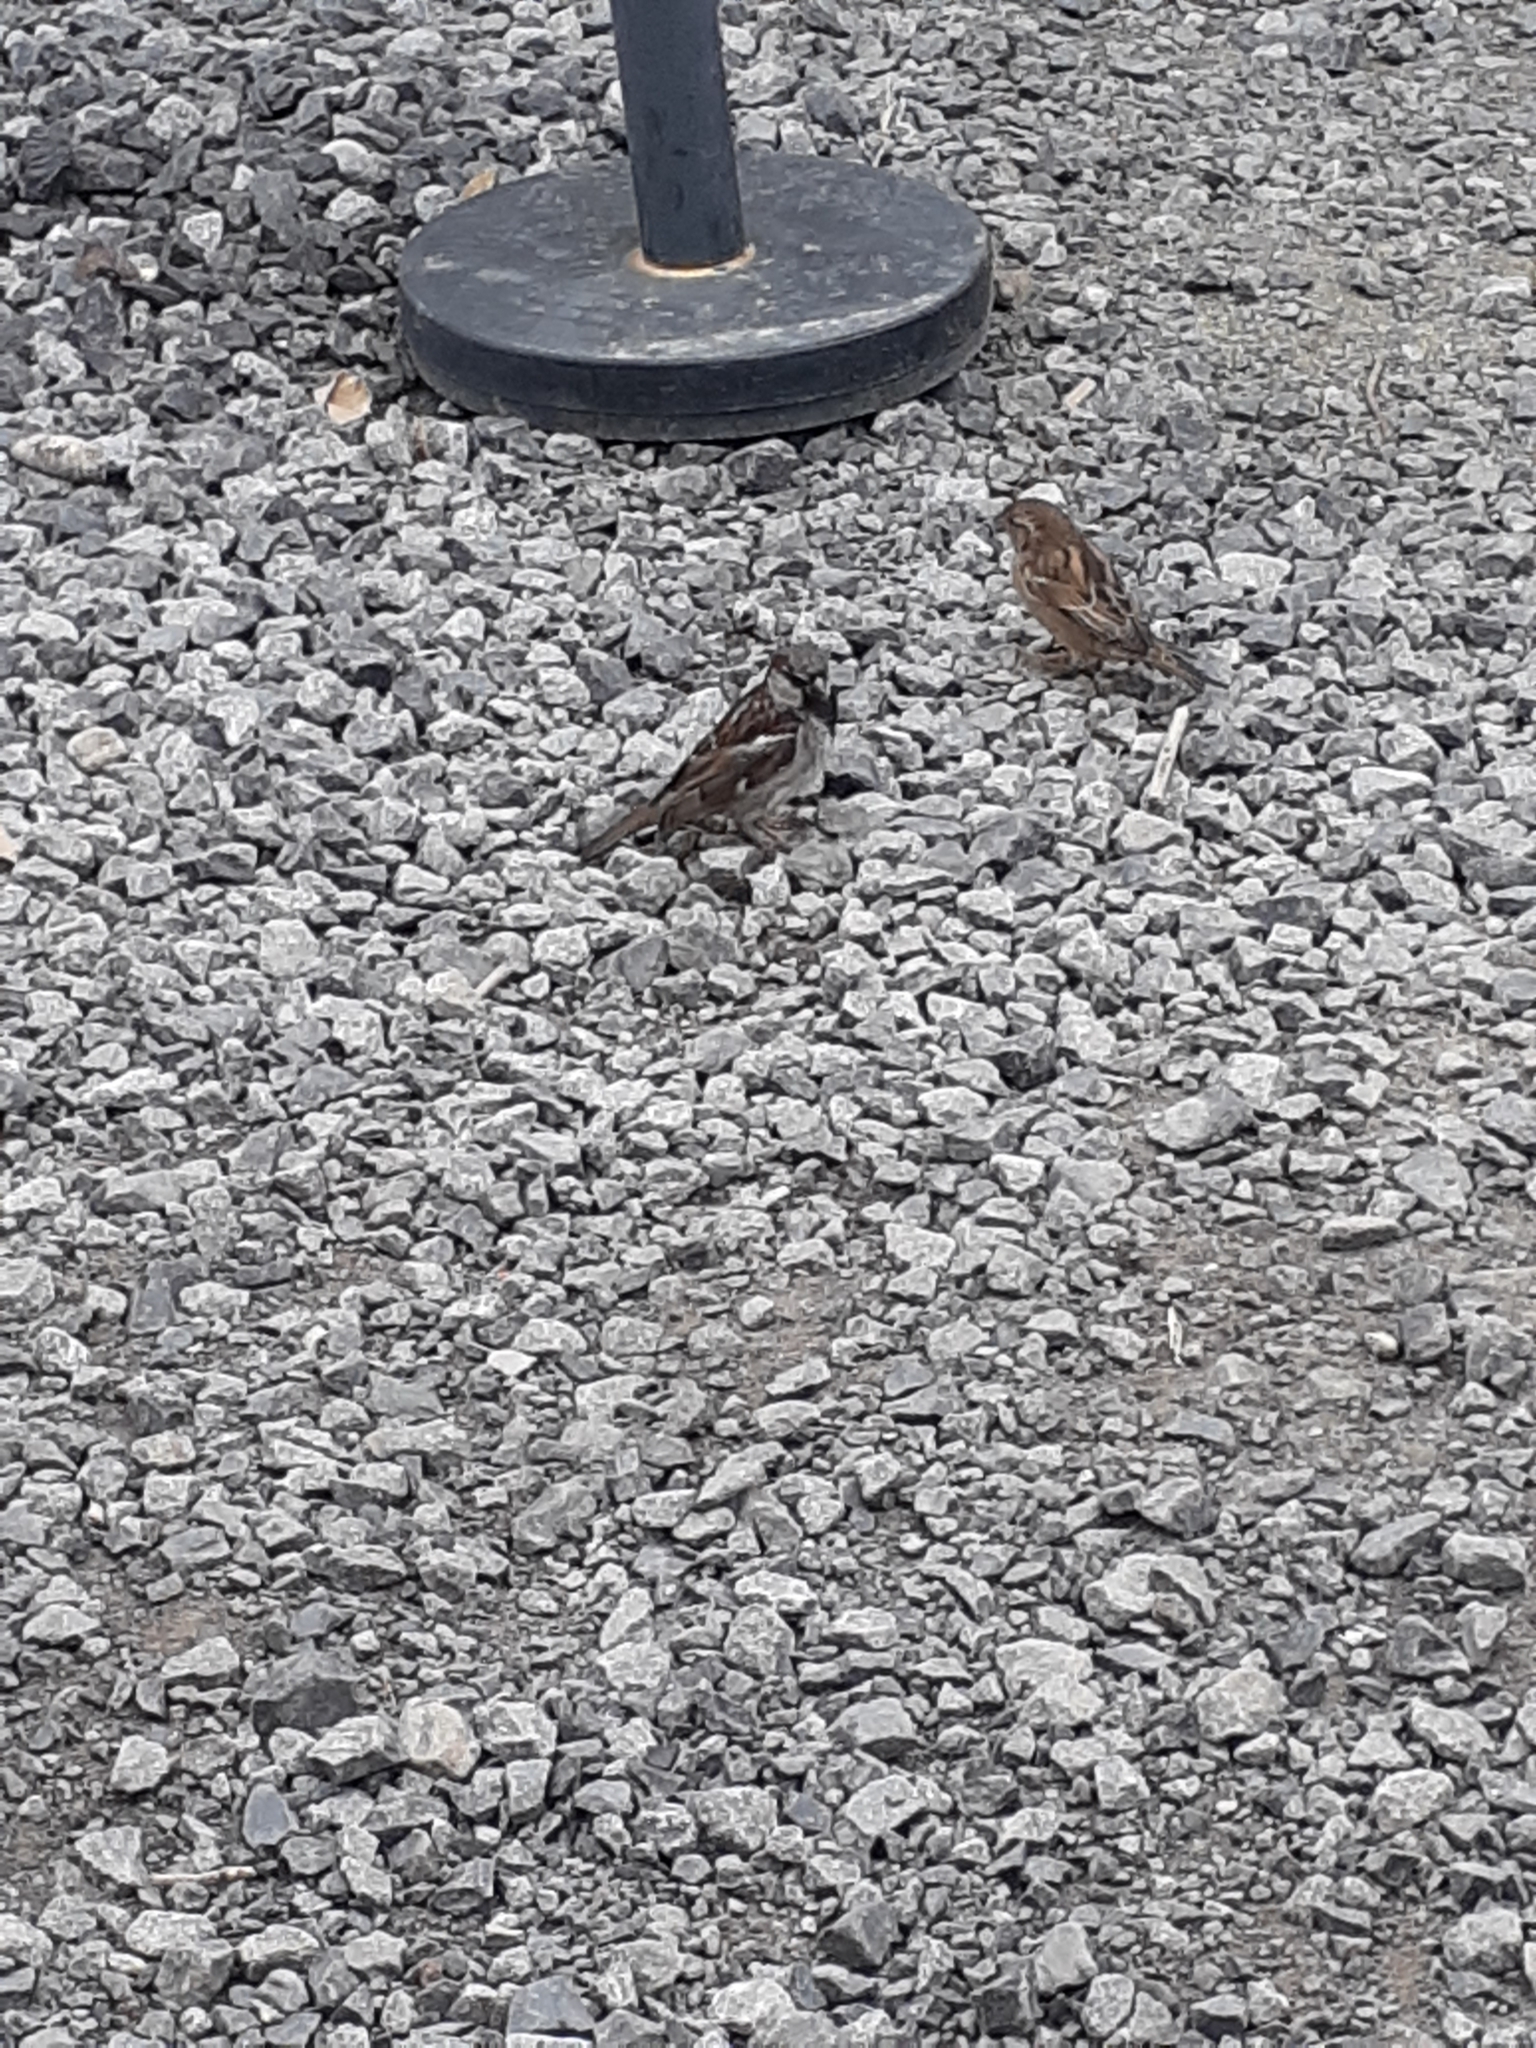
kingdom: Animalia
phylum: Chordata
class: Aves
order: Passeriformes
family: Passeridae
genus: Passer
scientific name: Passer domesticus
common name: House sparrow
